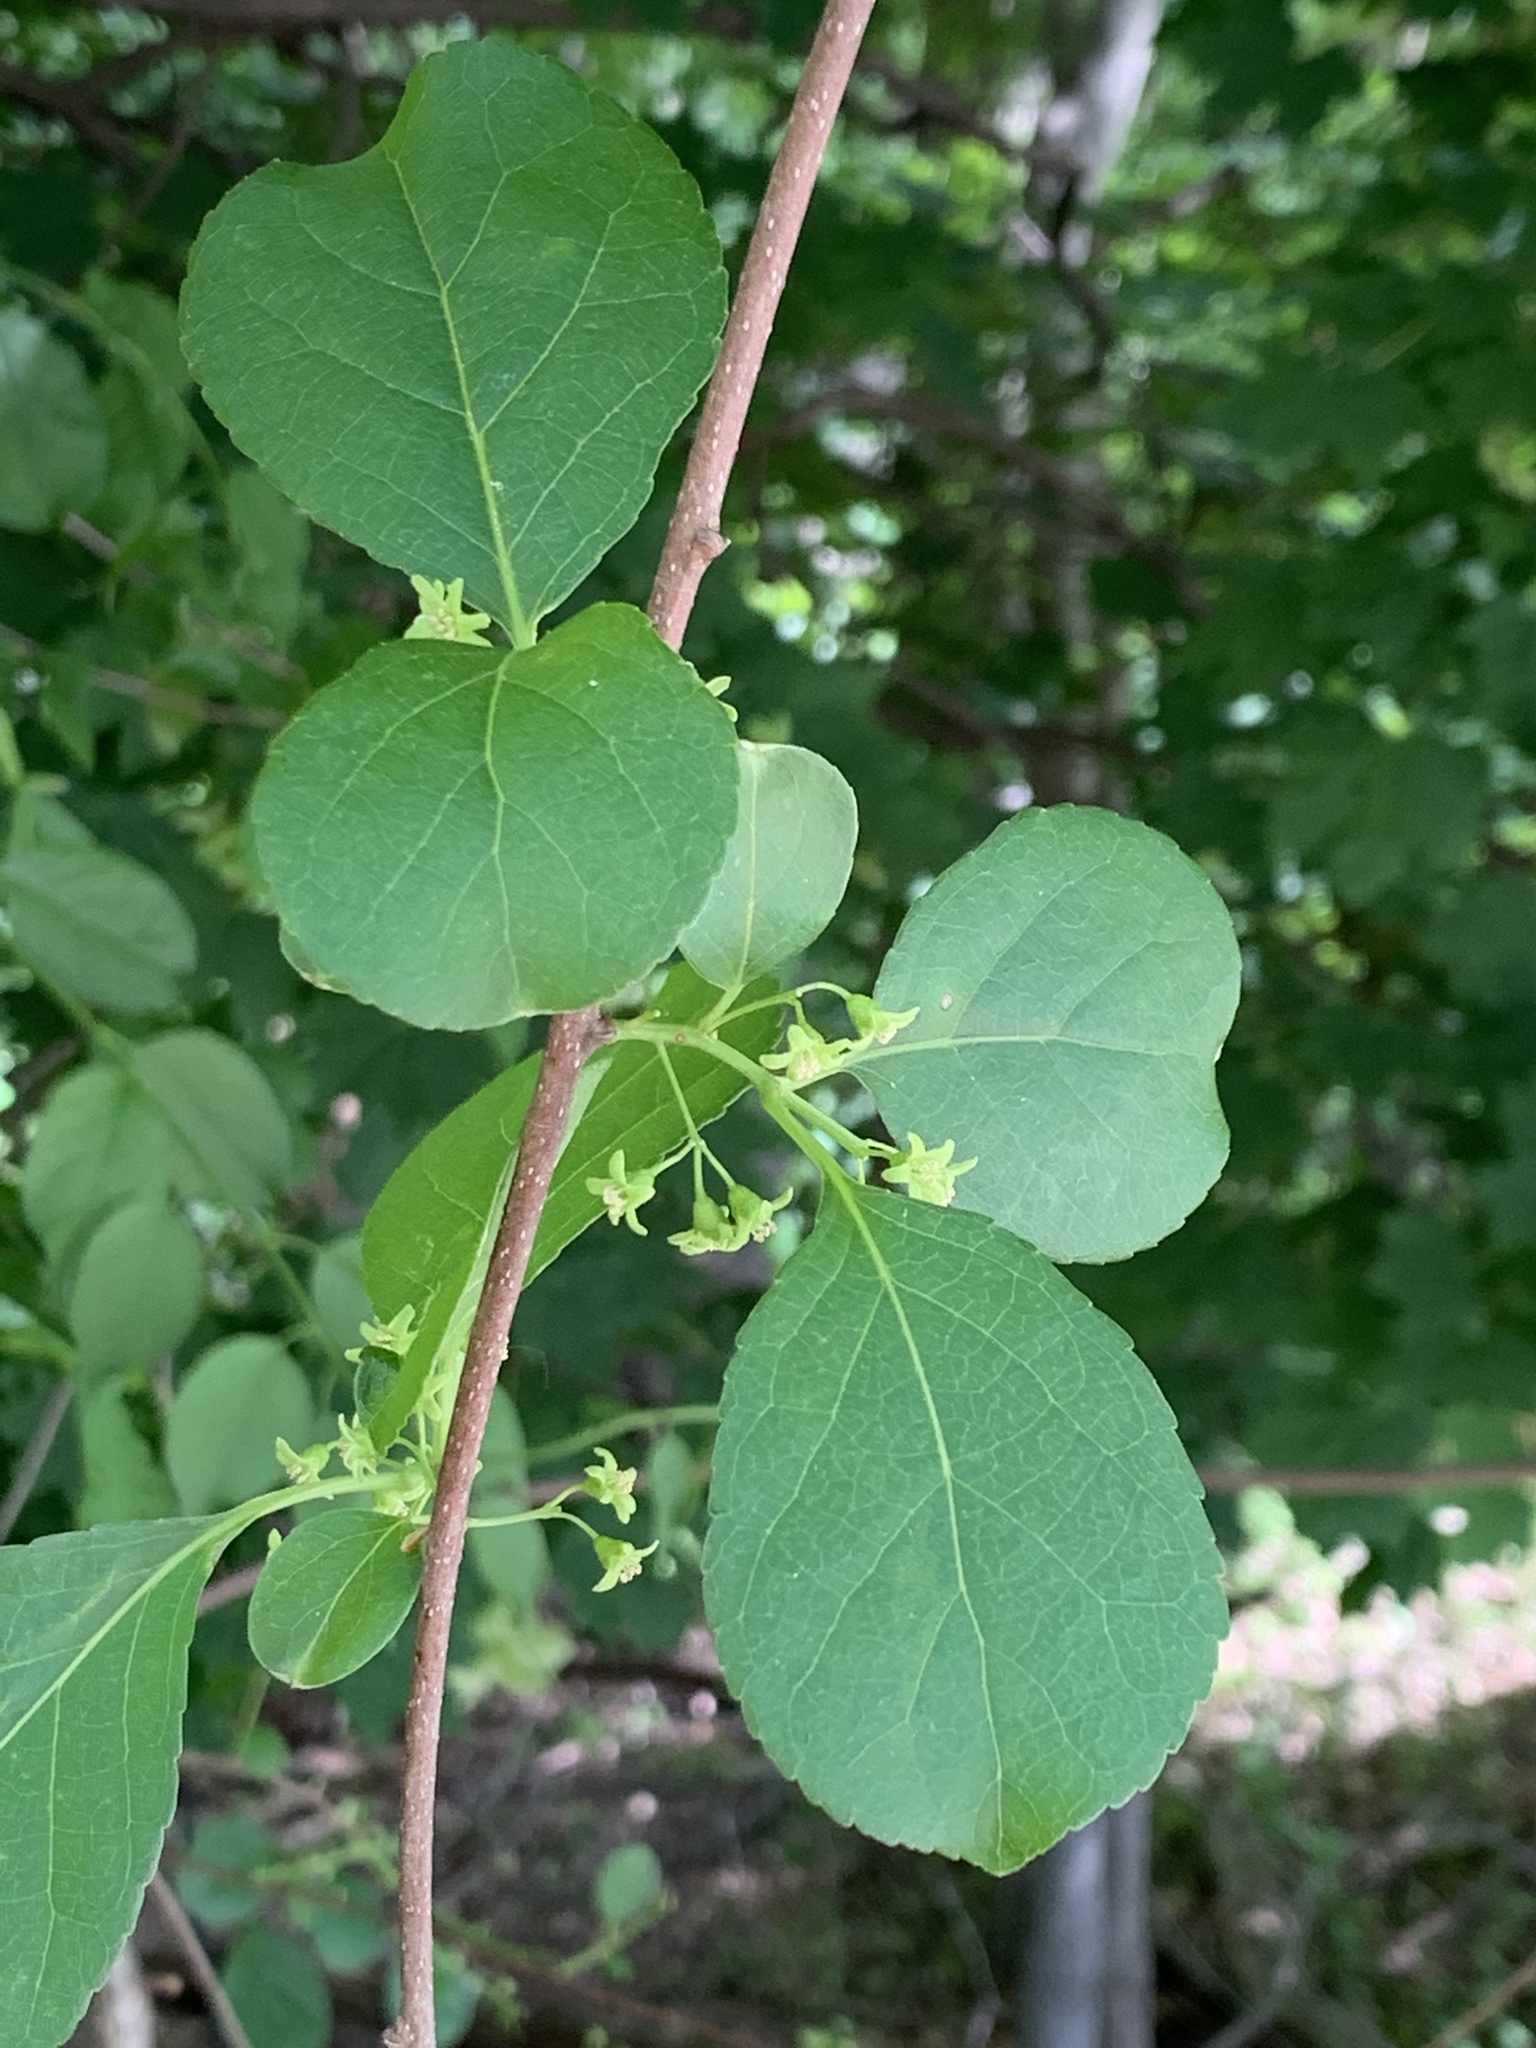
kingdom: Plantae
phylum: Tracheophyta
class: Magnoliopsida
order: Celastrales
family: Celastraceae
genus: Celastrus
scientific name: Celastrus orbiculatus
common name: Oriental bittersweet
